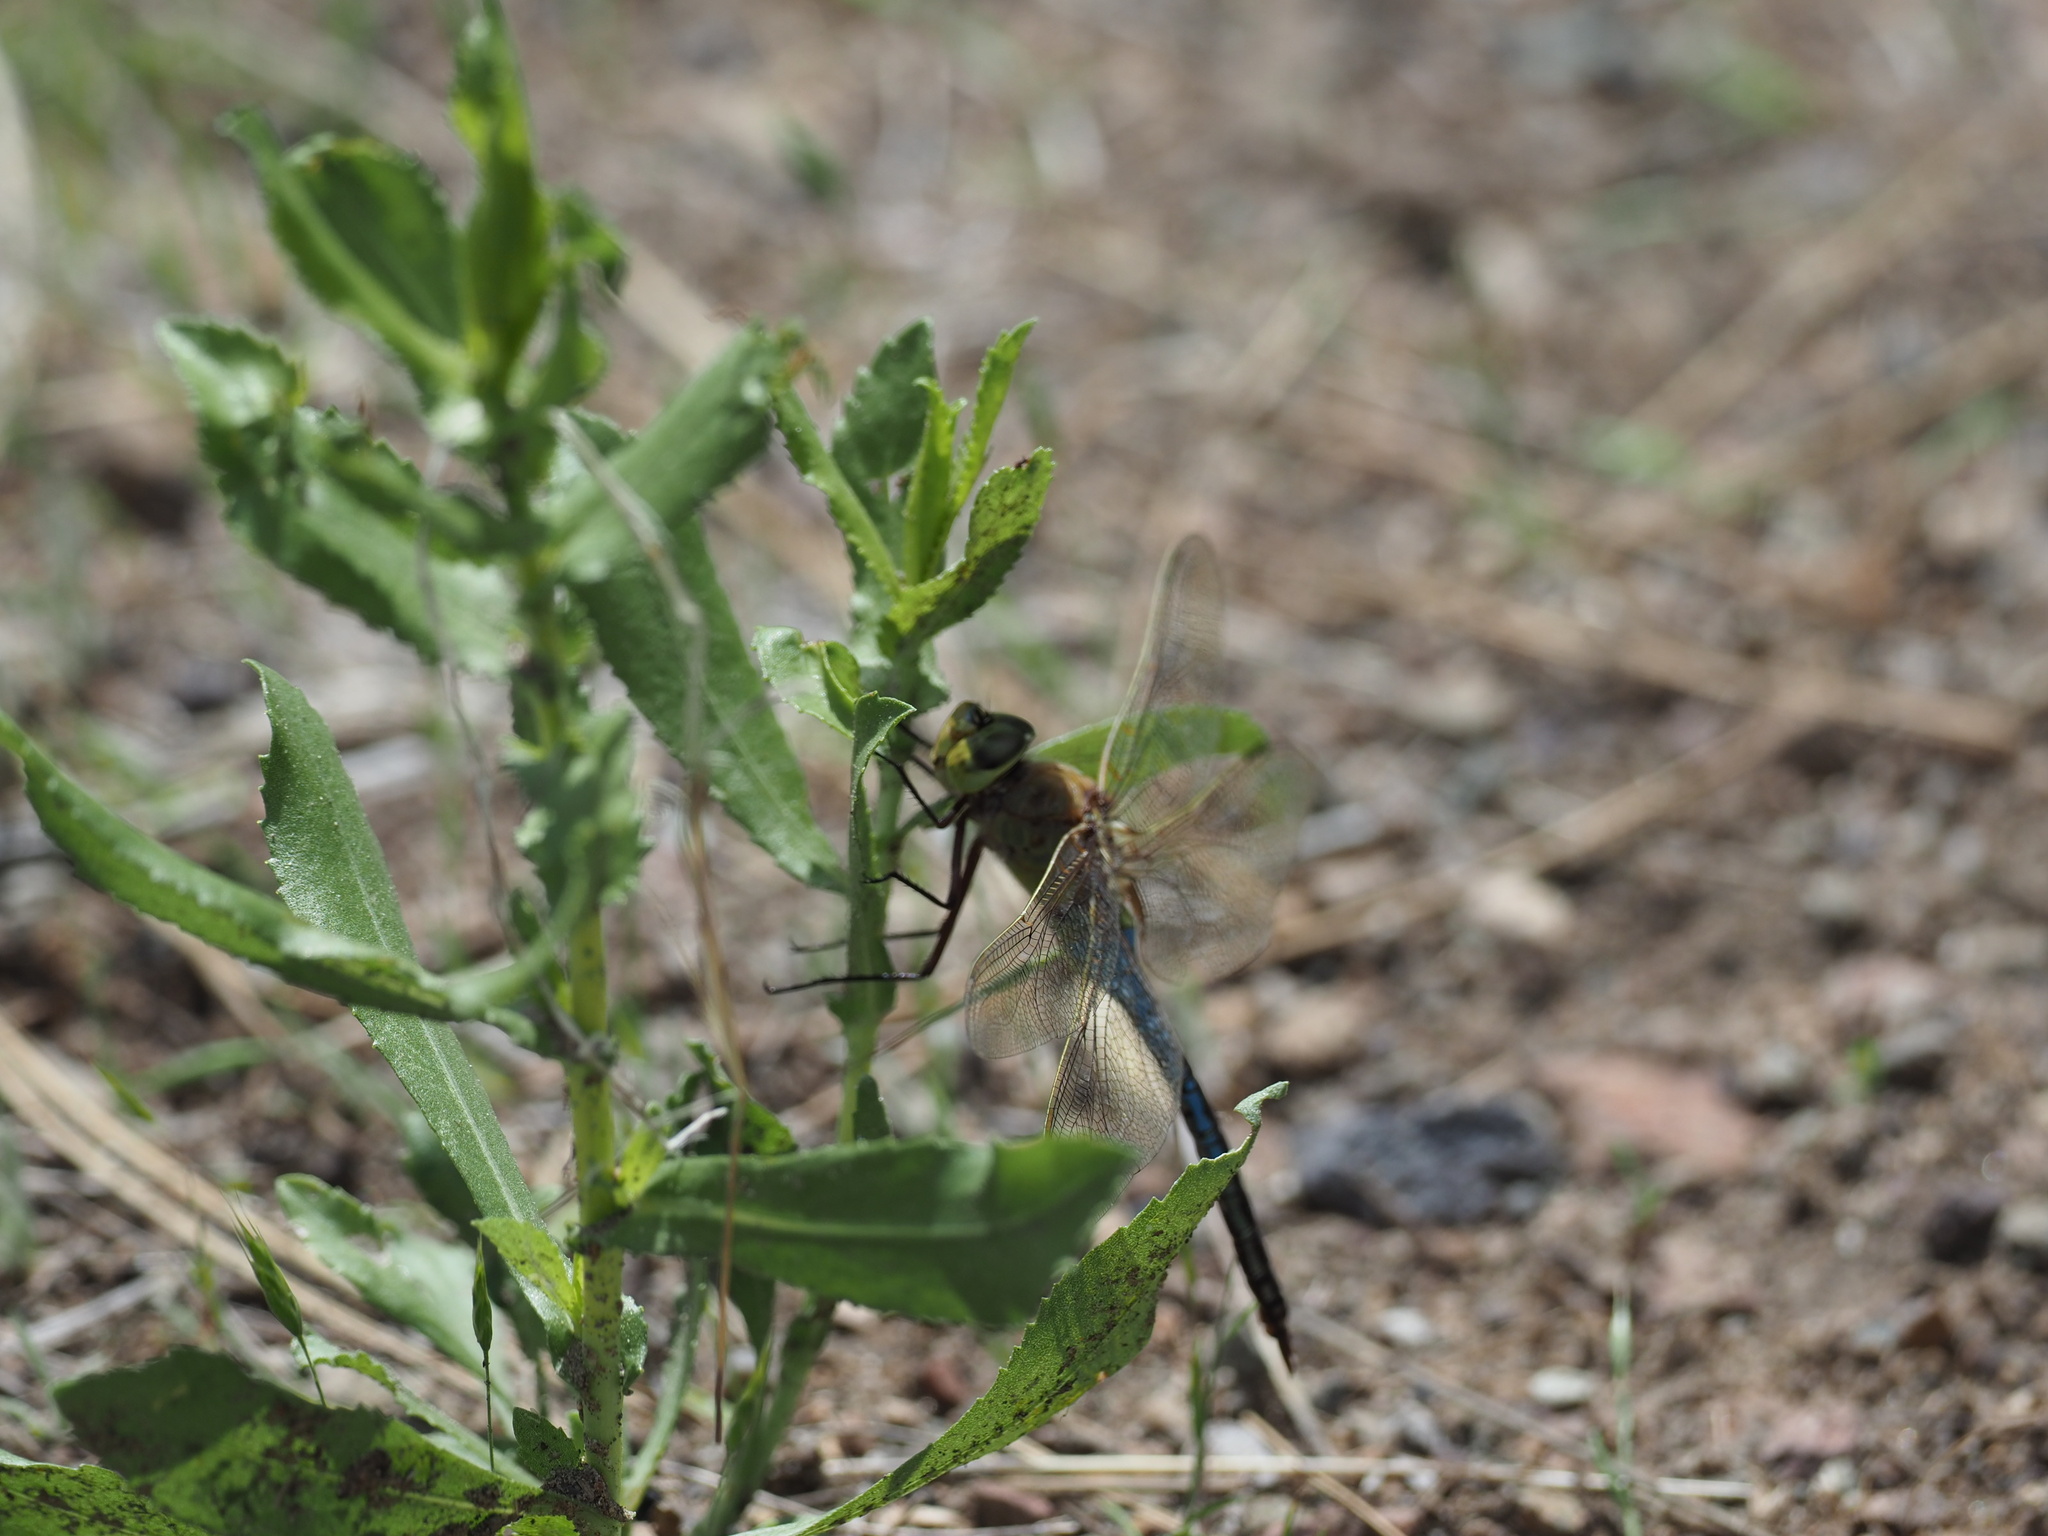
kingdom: Animalia
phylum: Arthropoda
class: Insecta
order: Odonata
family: Aeshnidae
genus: Anax
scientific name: Anax junius
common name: Common green darner
